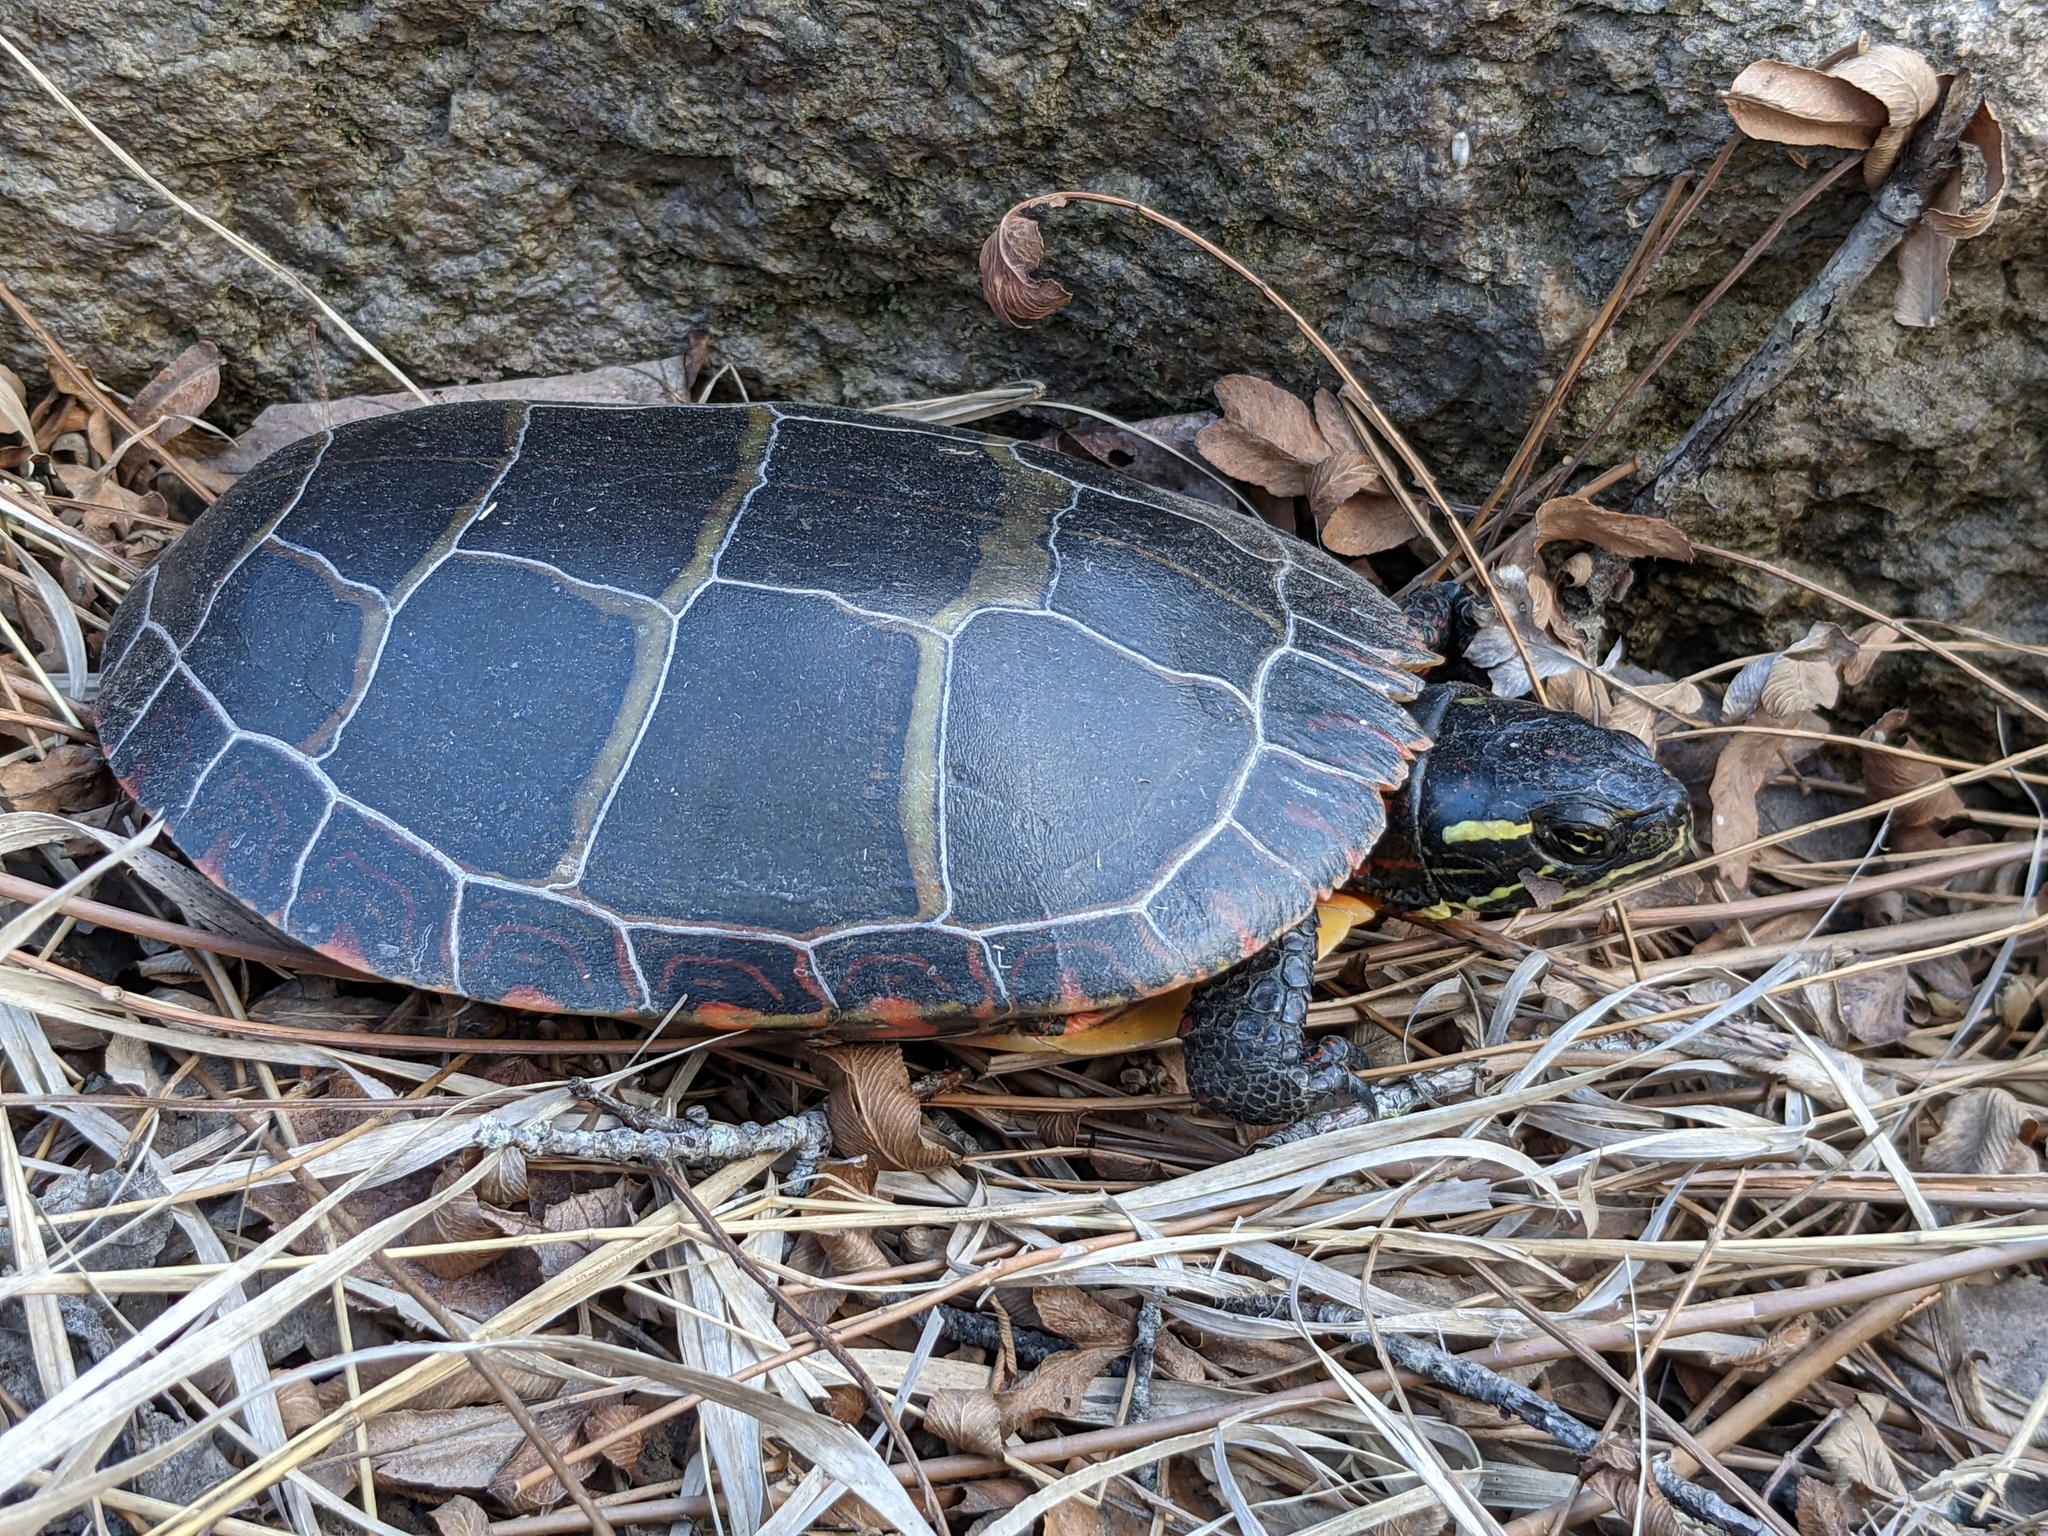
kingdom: Animalia
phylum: Chordata
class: Testudines
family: Emydidae
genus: Chrysemys
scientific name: Chrysemys picta
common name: Painted turtle
